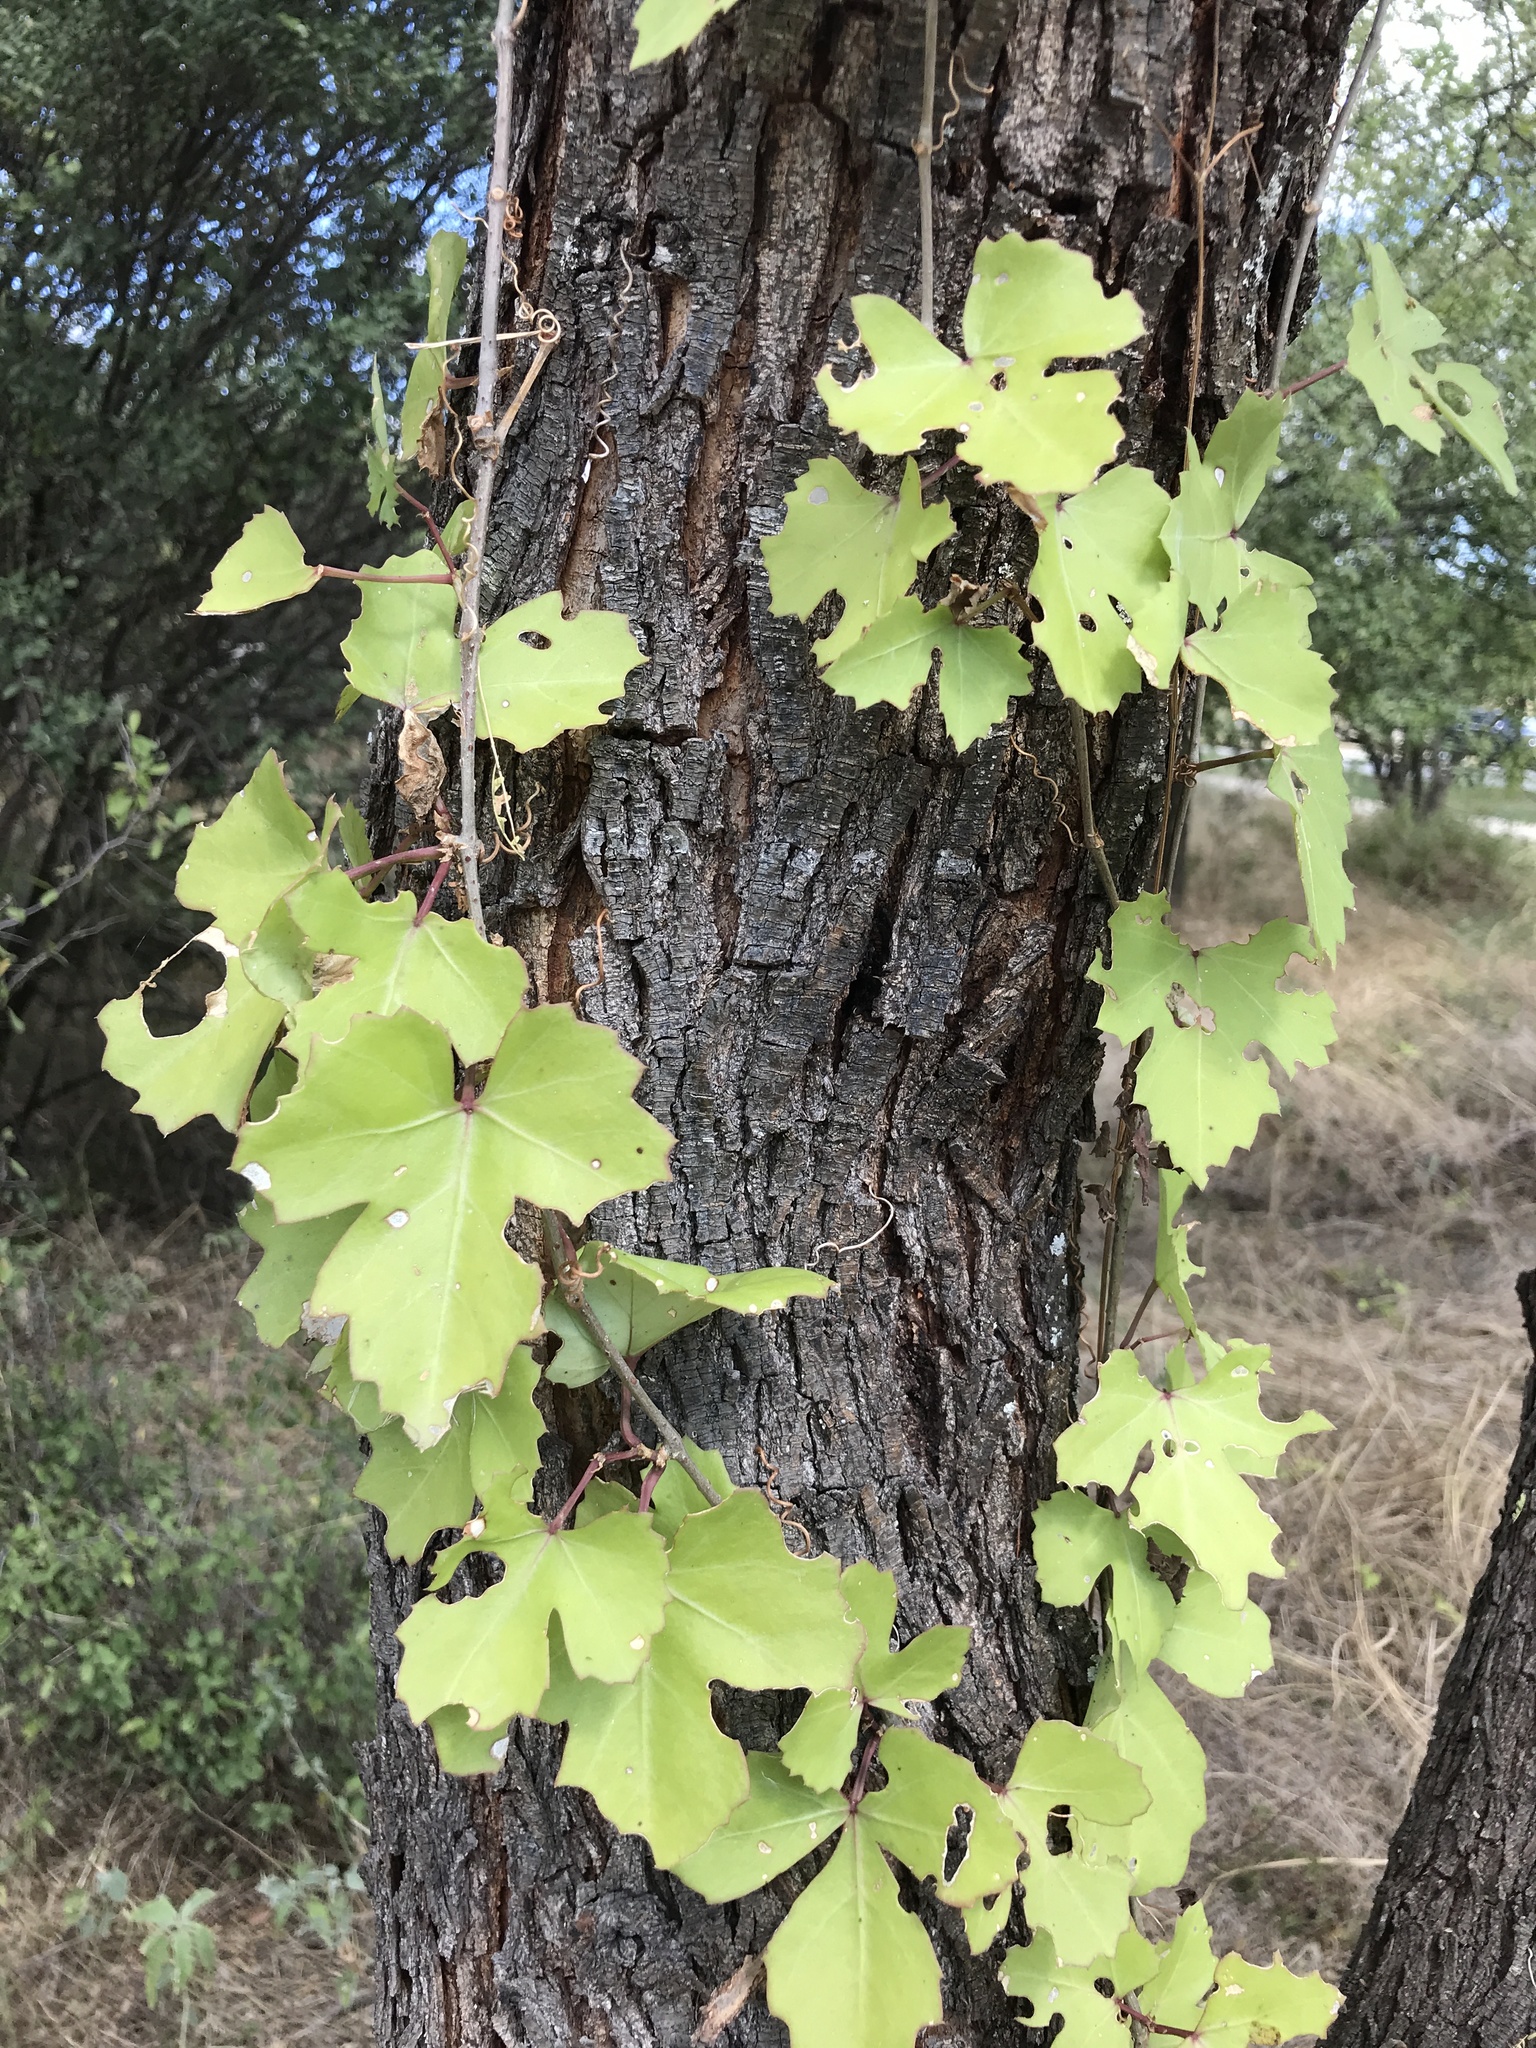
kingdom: Plantae
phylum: Tracheophyta
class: Magnoliopsida
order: Vitales
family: Vitaceae
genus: Cissus
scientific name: Cissus trifoliata
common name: Vine-sorrel
